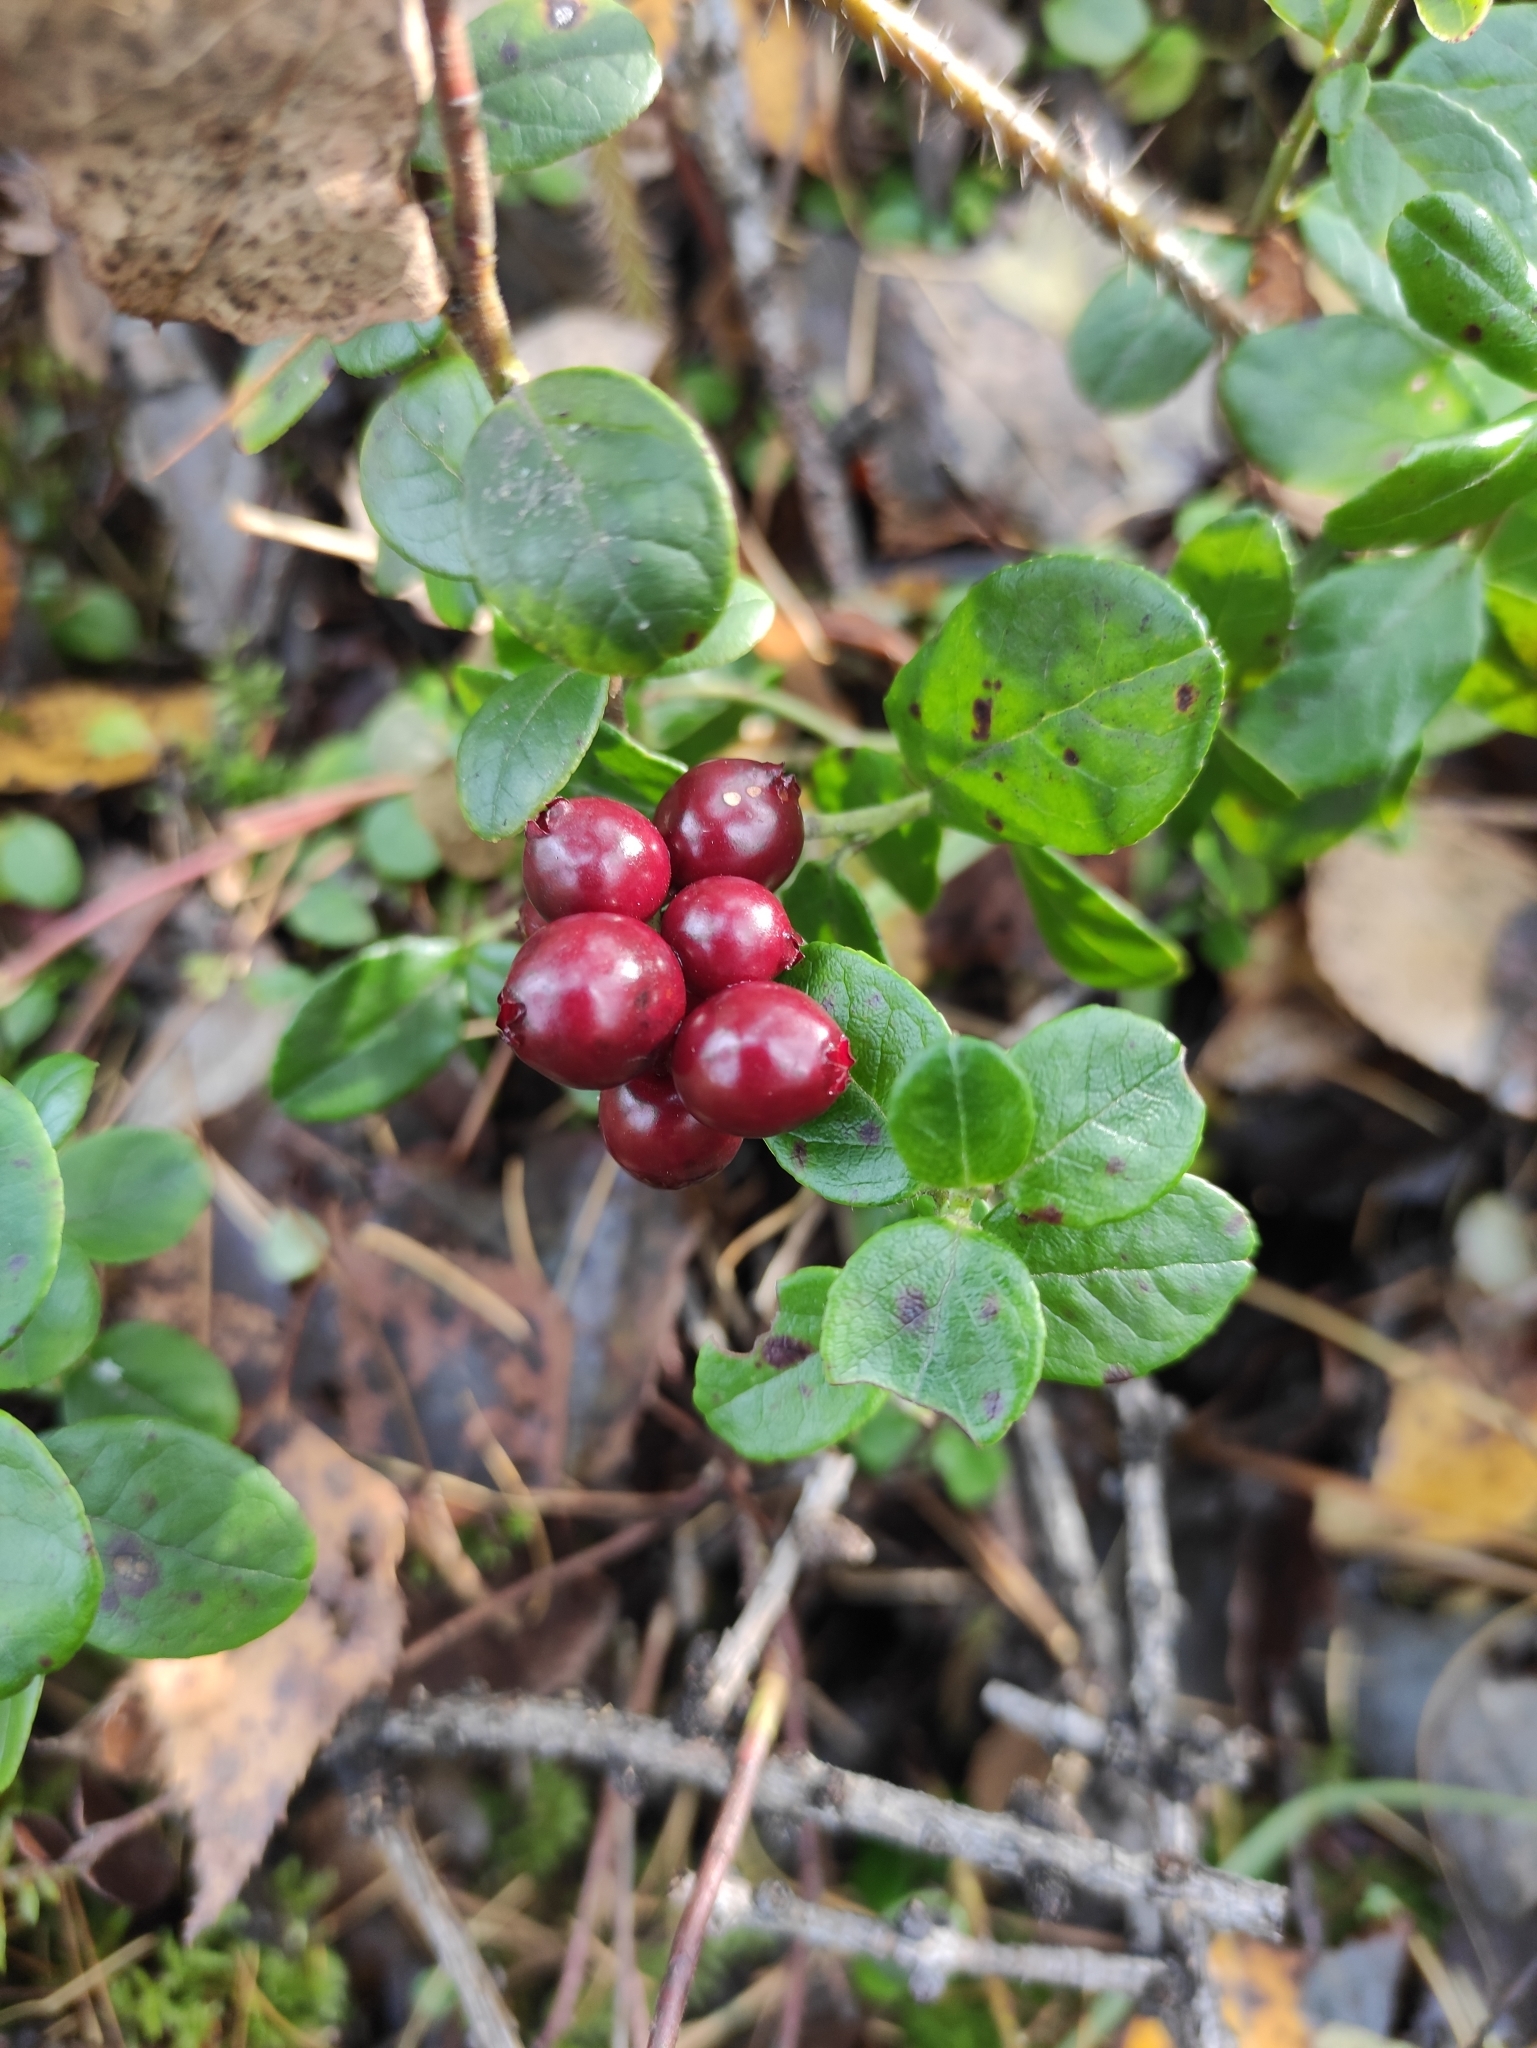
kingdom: Plantae
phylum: Tracheophyta
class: Magnoliopsida
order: Ericales
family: Ericaceae
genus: Vaccinium
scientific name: Vaccinium vitis-idaea
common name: Cowberry
